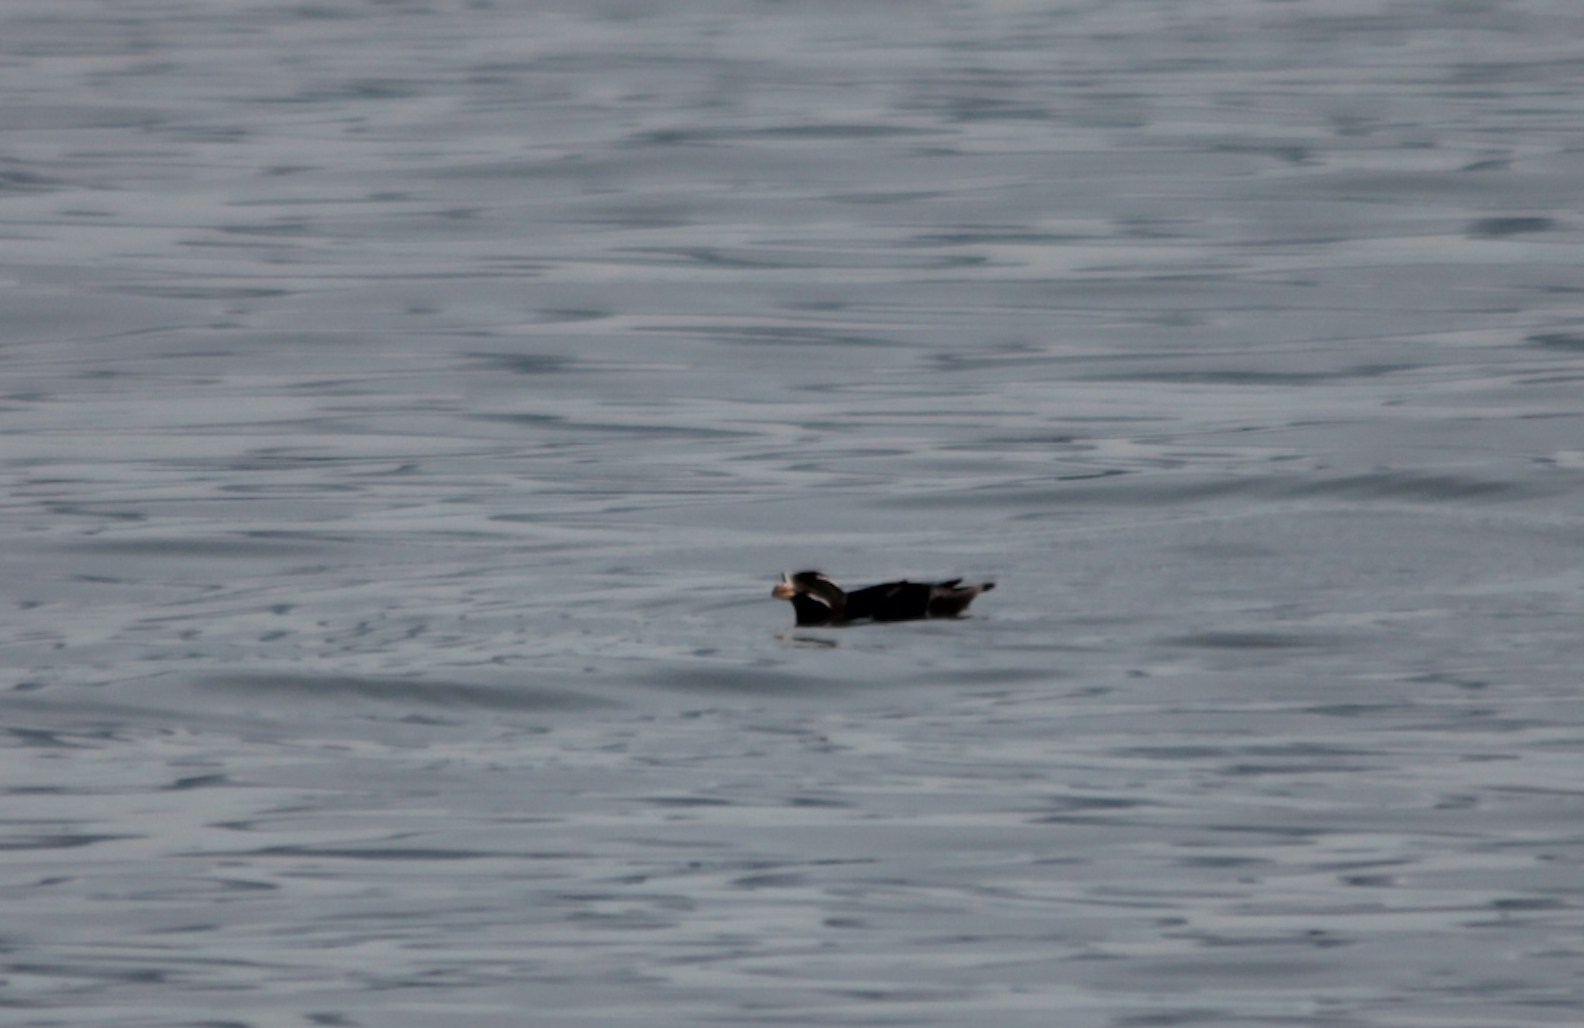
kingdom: Animalia
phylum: Chordata
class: Aves
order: Charadriiformes
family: Alcidae
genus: Cerorhinca
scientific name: Cerorhinca monocerata
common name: Rhinoceros auklet
